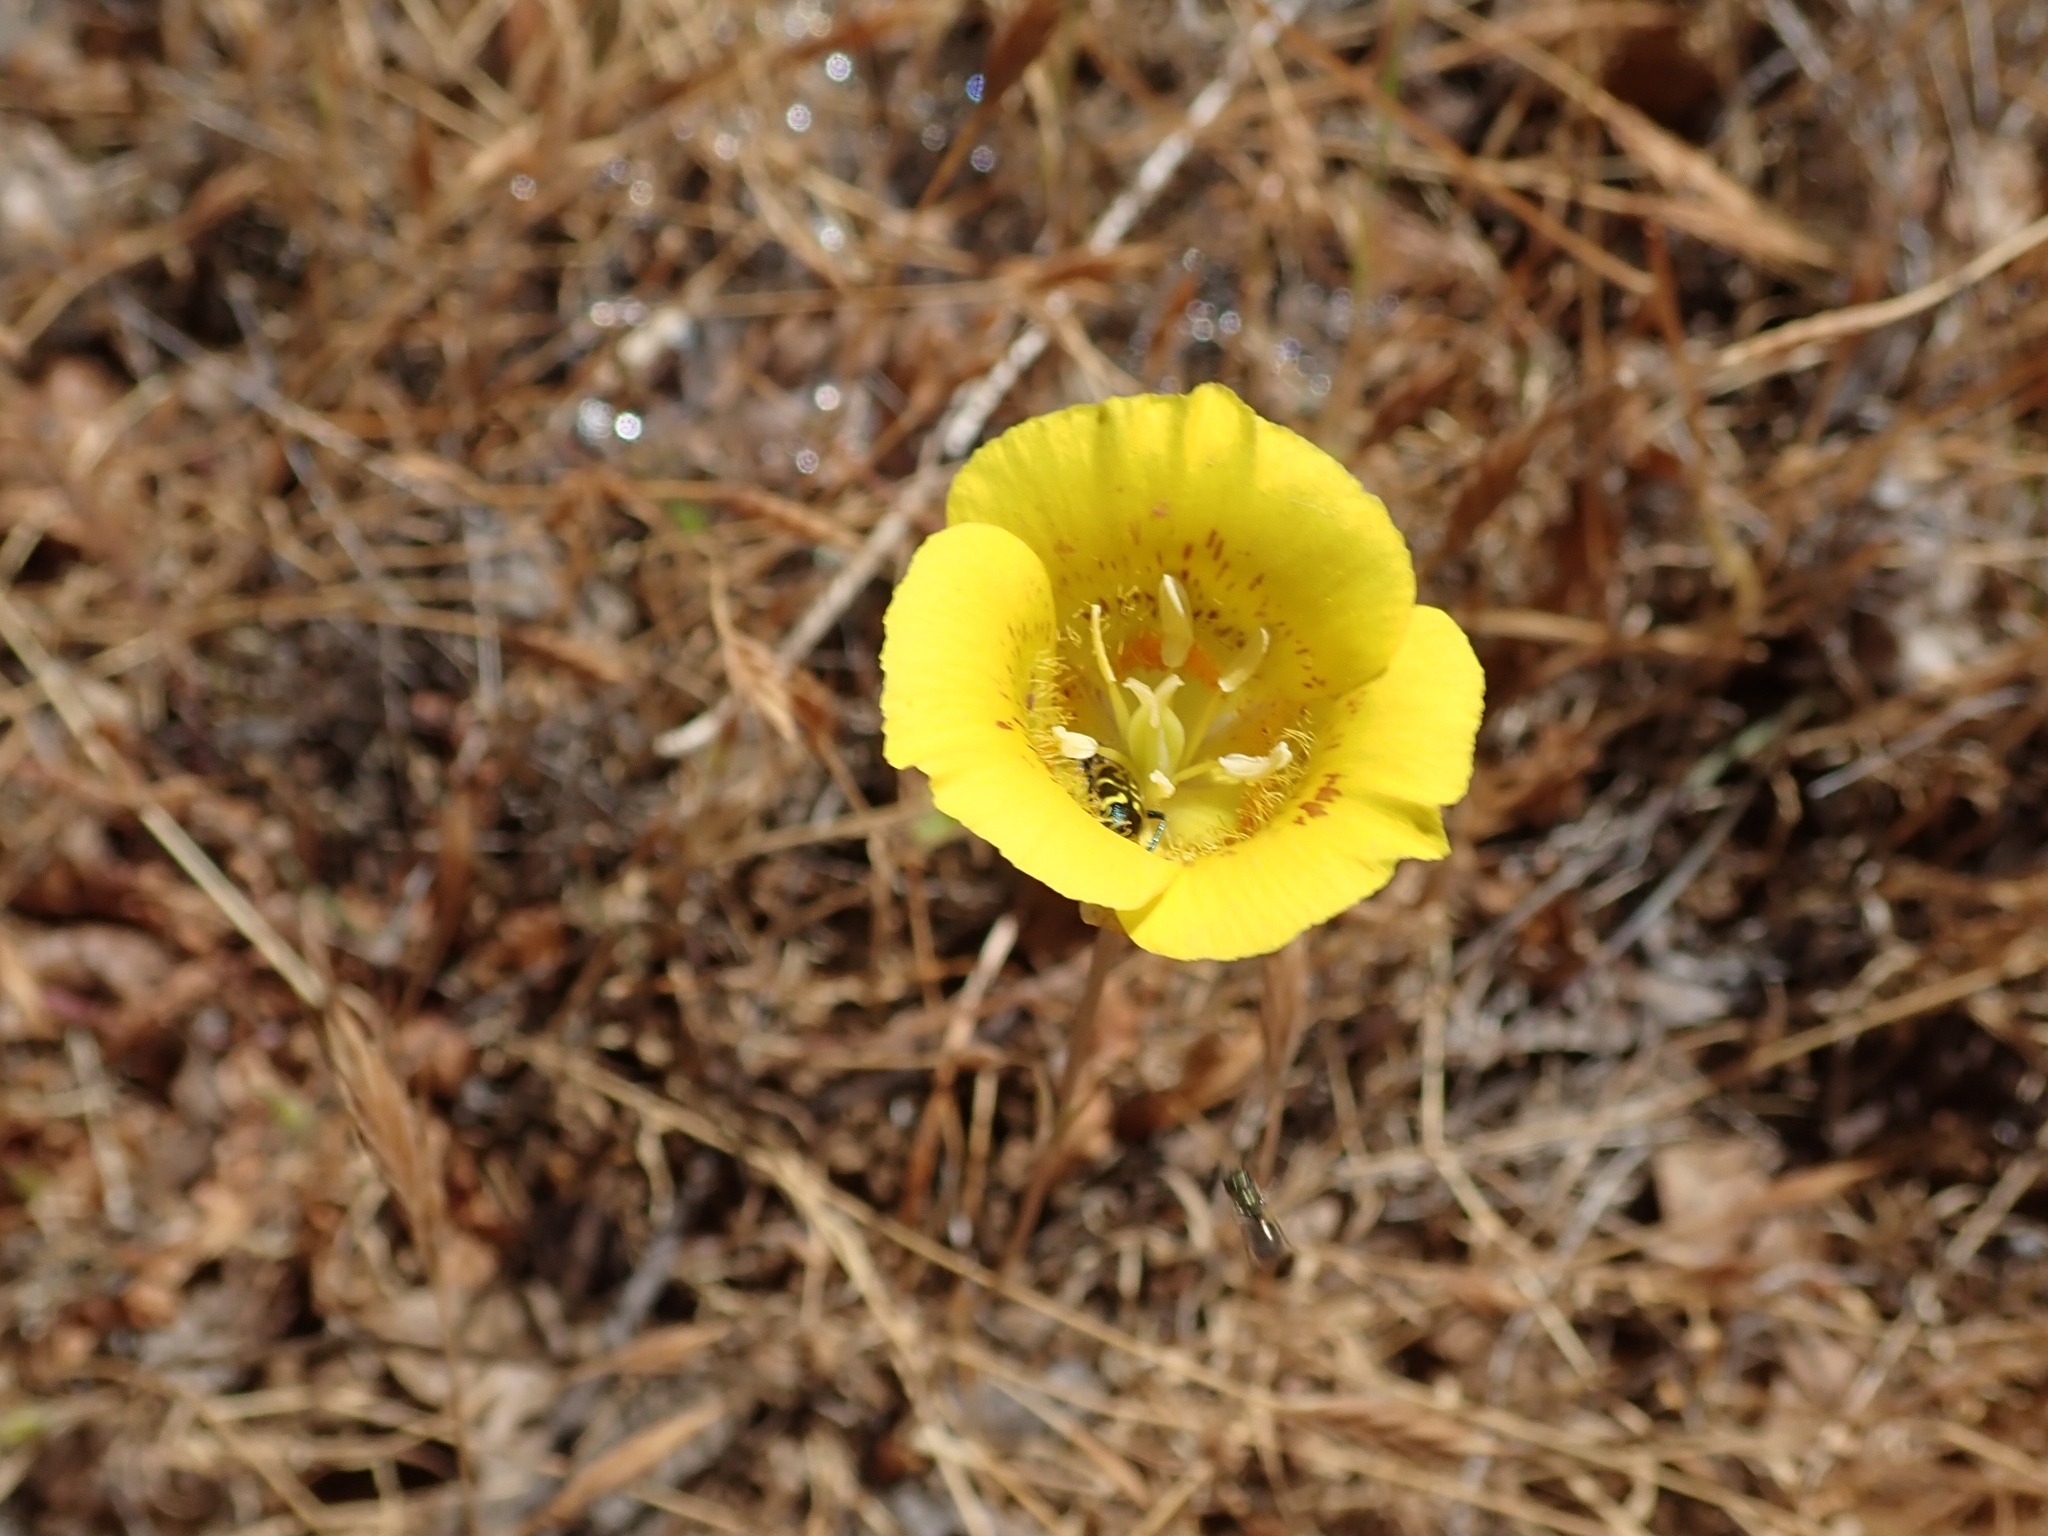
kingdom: Plantae
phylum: Tracheophyta
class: Liliopsida
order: Liliales
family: Liliaceae
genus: Calochortus
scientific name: Calochortus luteus
